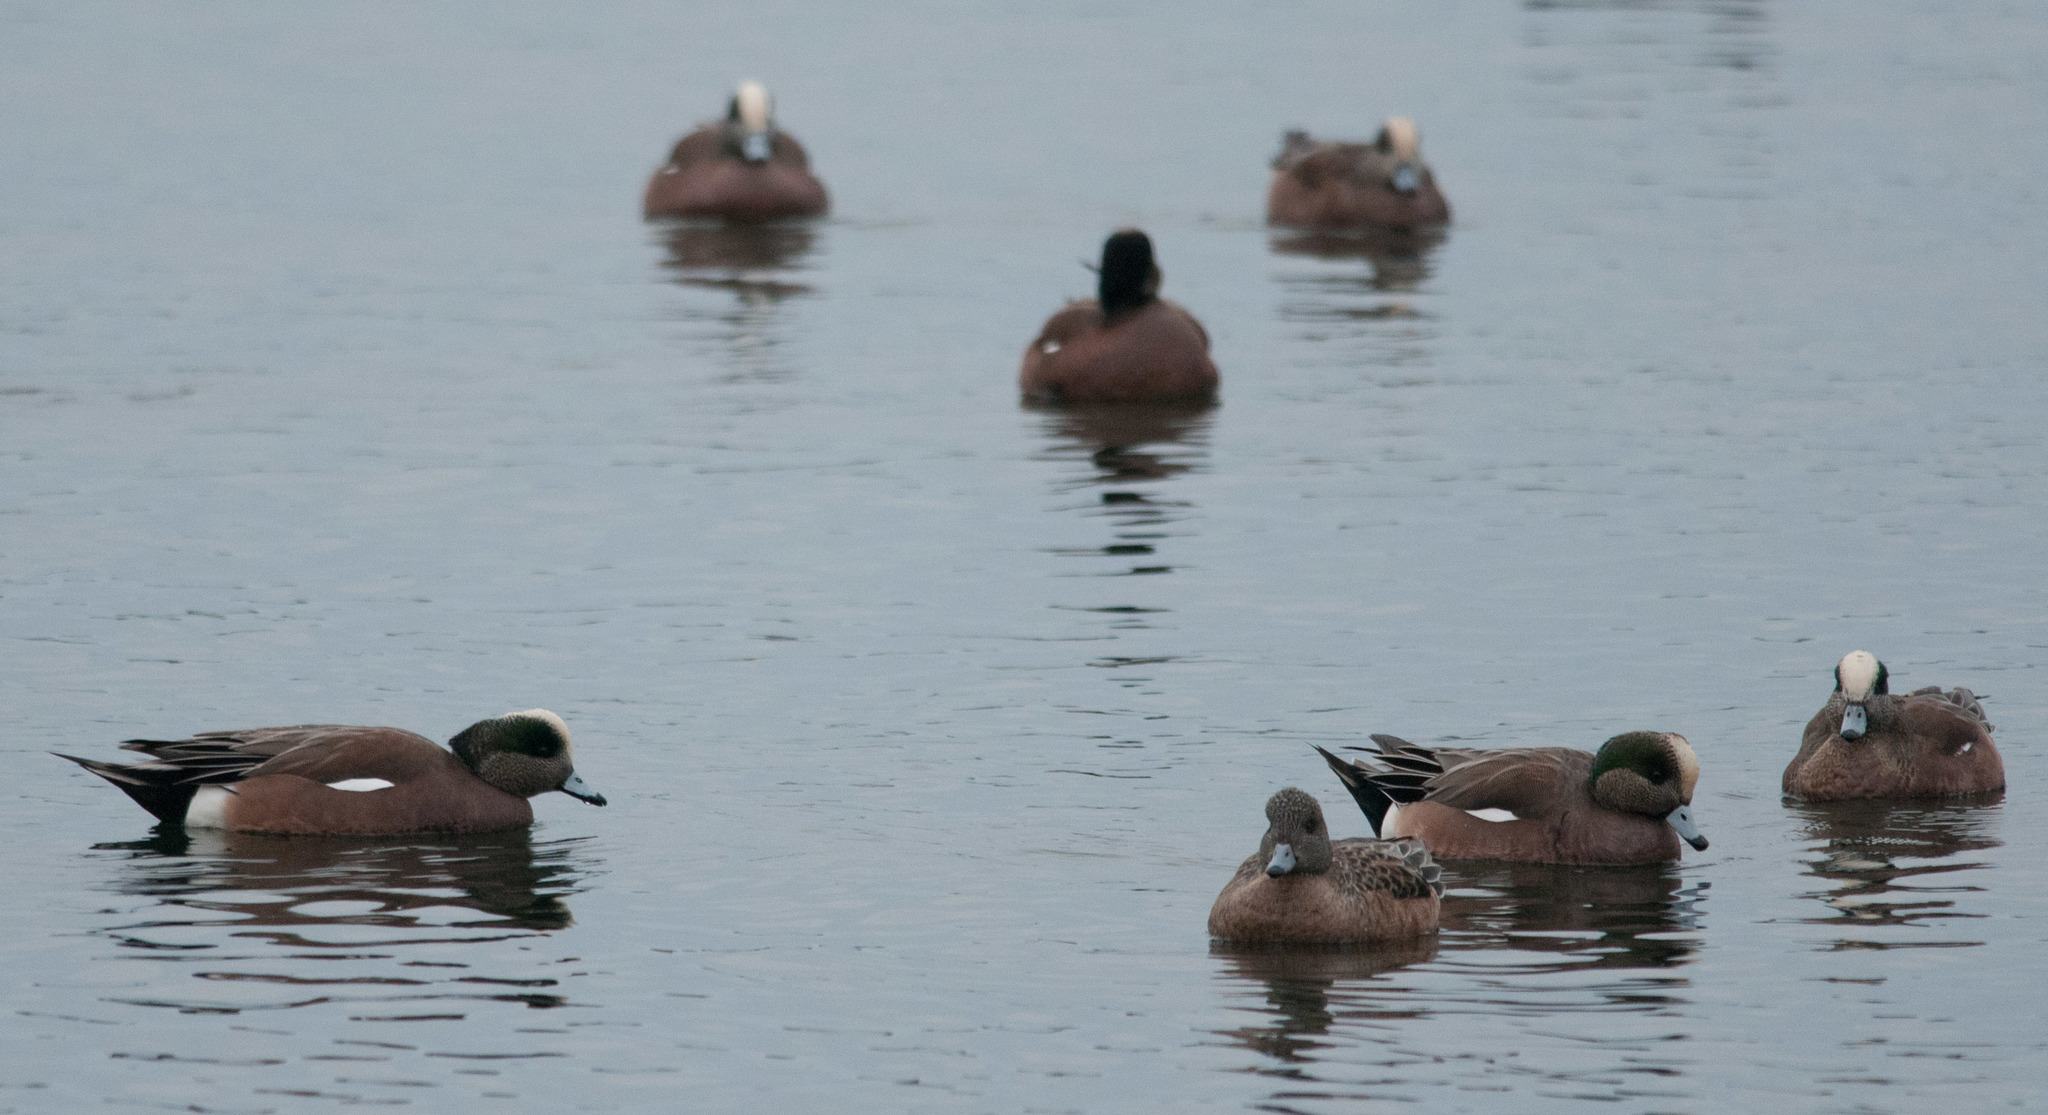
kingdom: Animalia
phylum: Chordata
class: Aves
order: Anseriformes
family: Anatidae
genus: Mareca
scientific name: Mareca americana
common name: American wigeon
